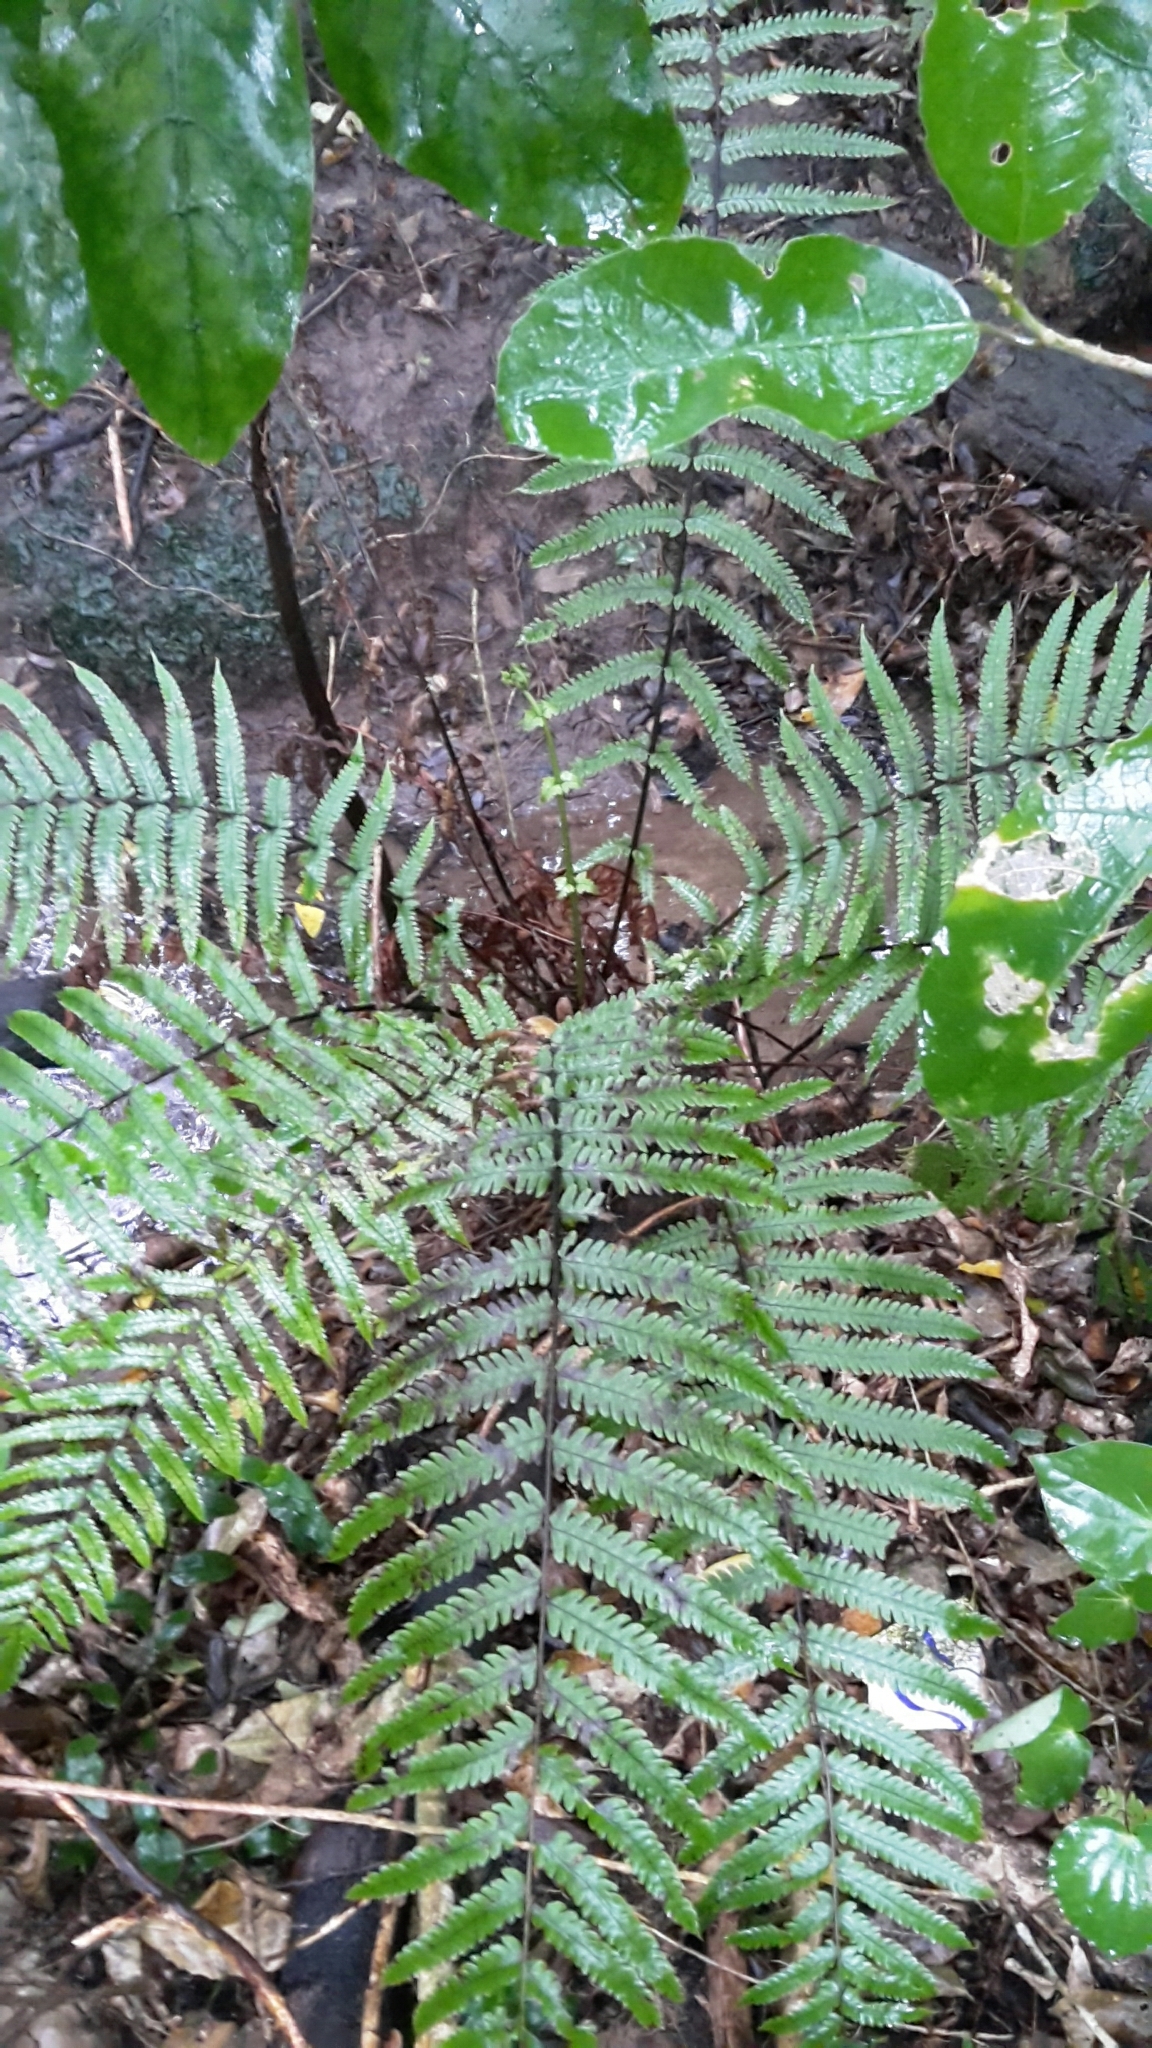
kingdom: Plantae
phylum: Tracheophyta
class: Polypodiopsida
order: Polypodiales
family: Thelypteridaceae
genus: Pakau
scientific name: Pakau pennigera
